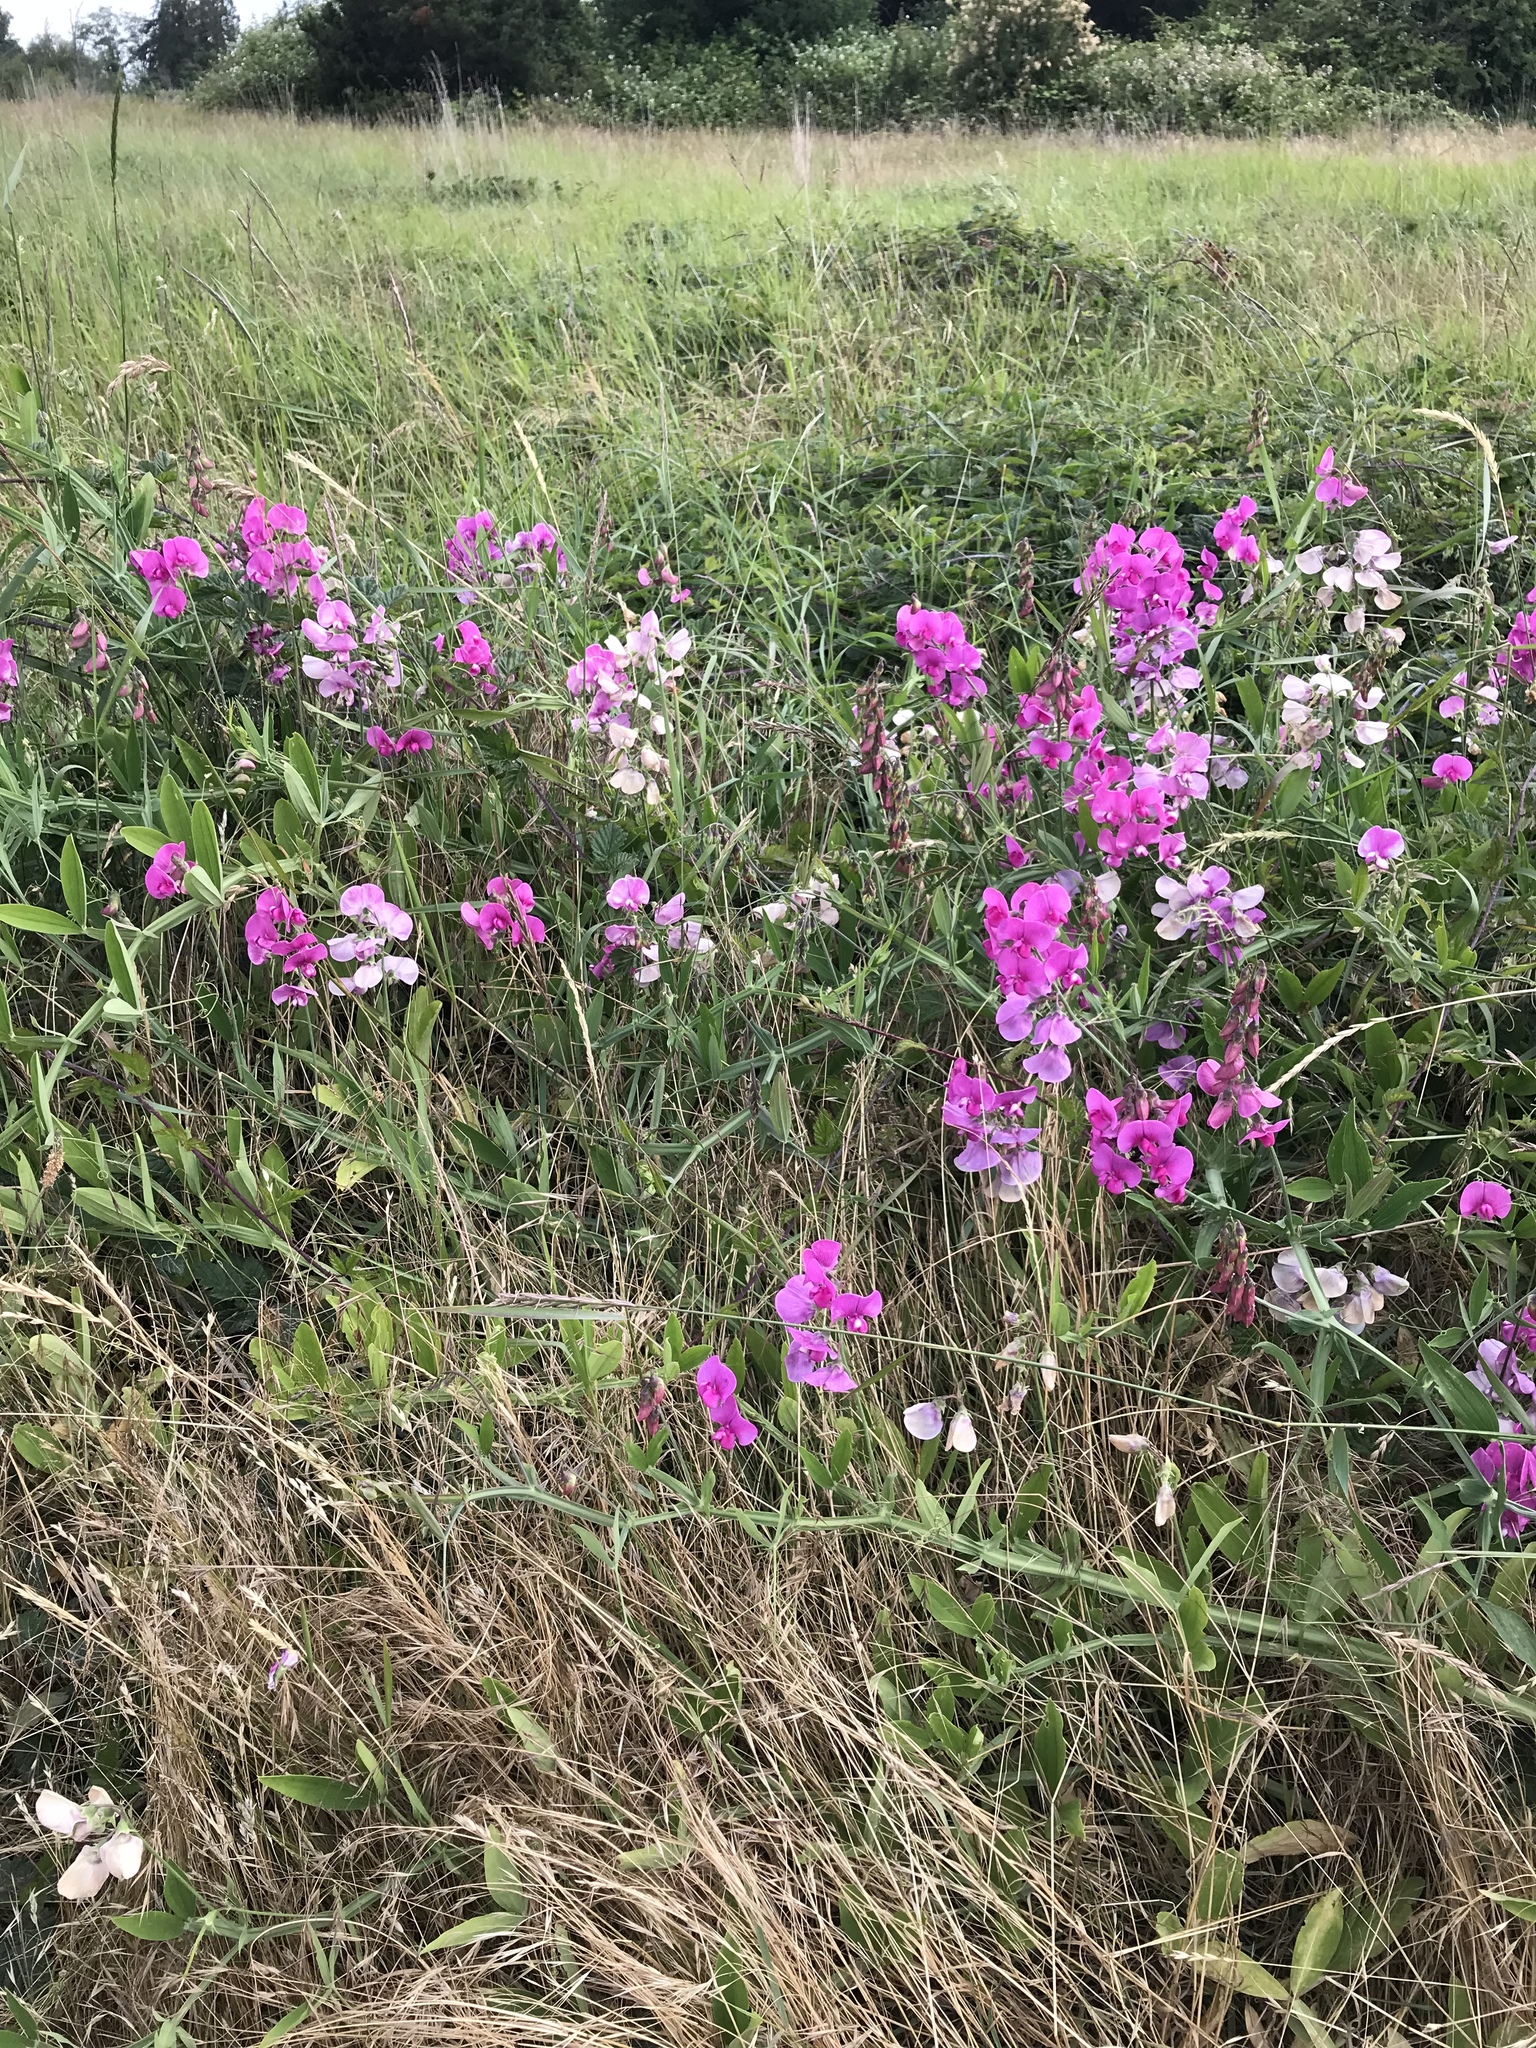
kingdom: Plantae
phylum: Tracheophyta
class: Magnoliopsida
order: Fabales
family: Fabaceae
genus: Lathyrus
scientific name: Lathyrus latifolius
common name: Perennial pea
